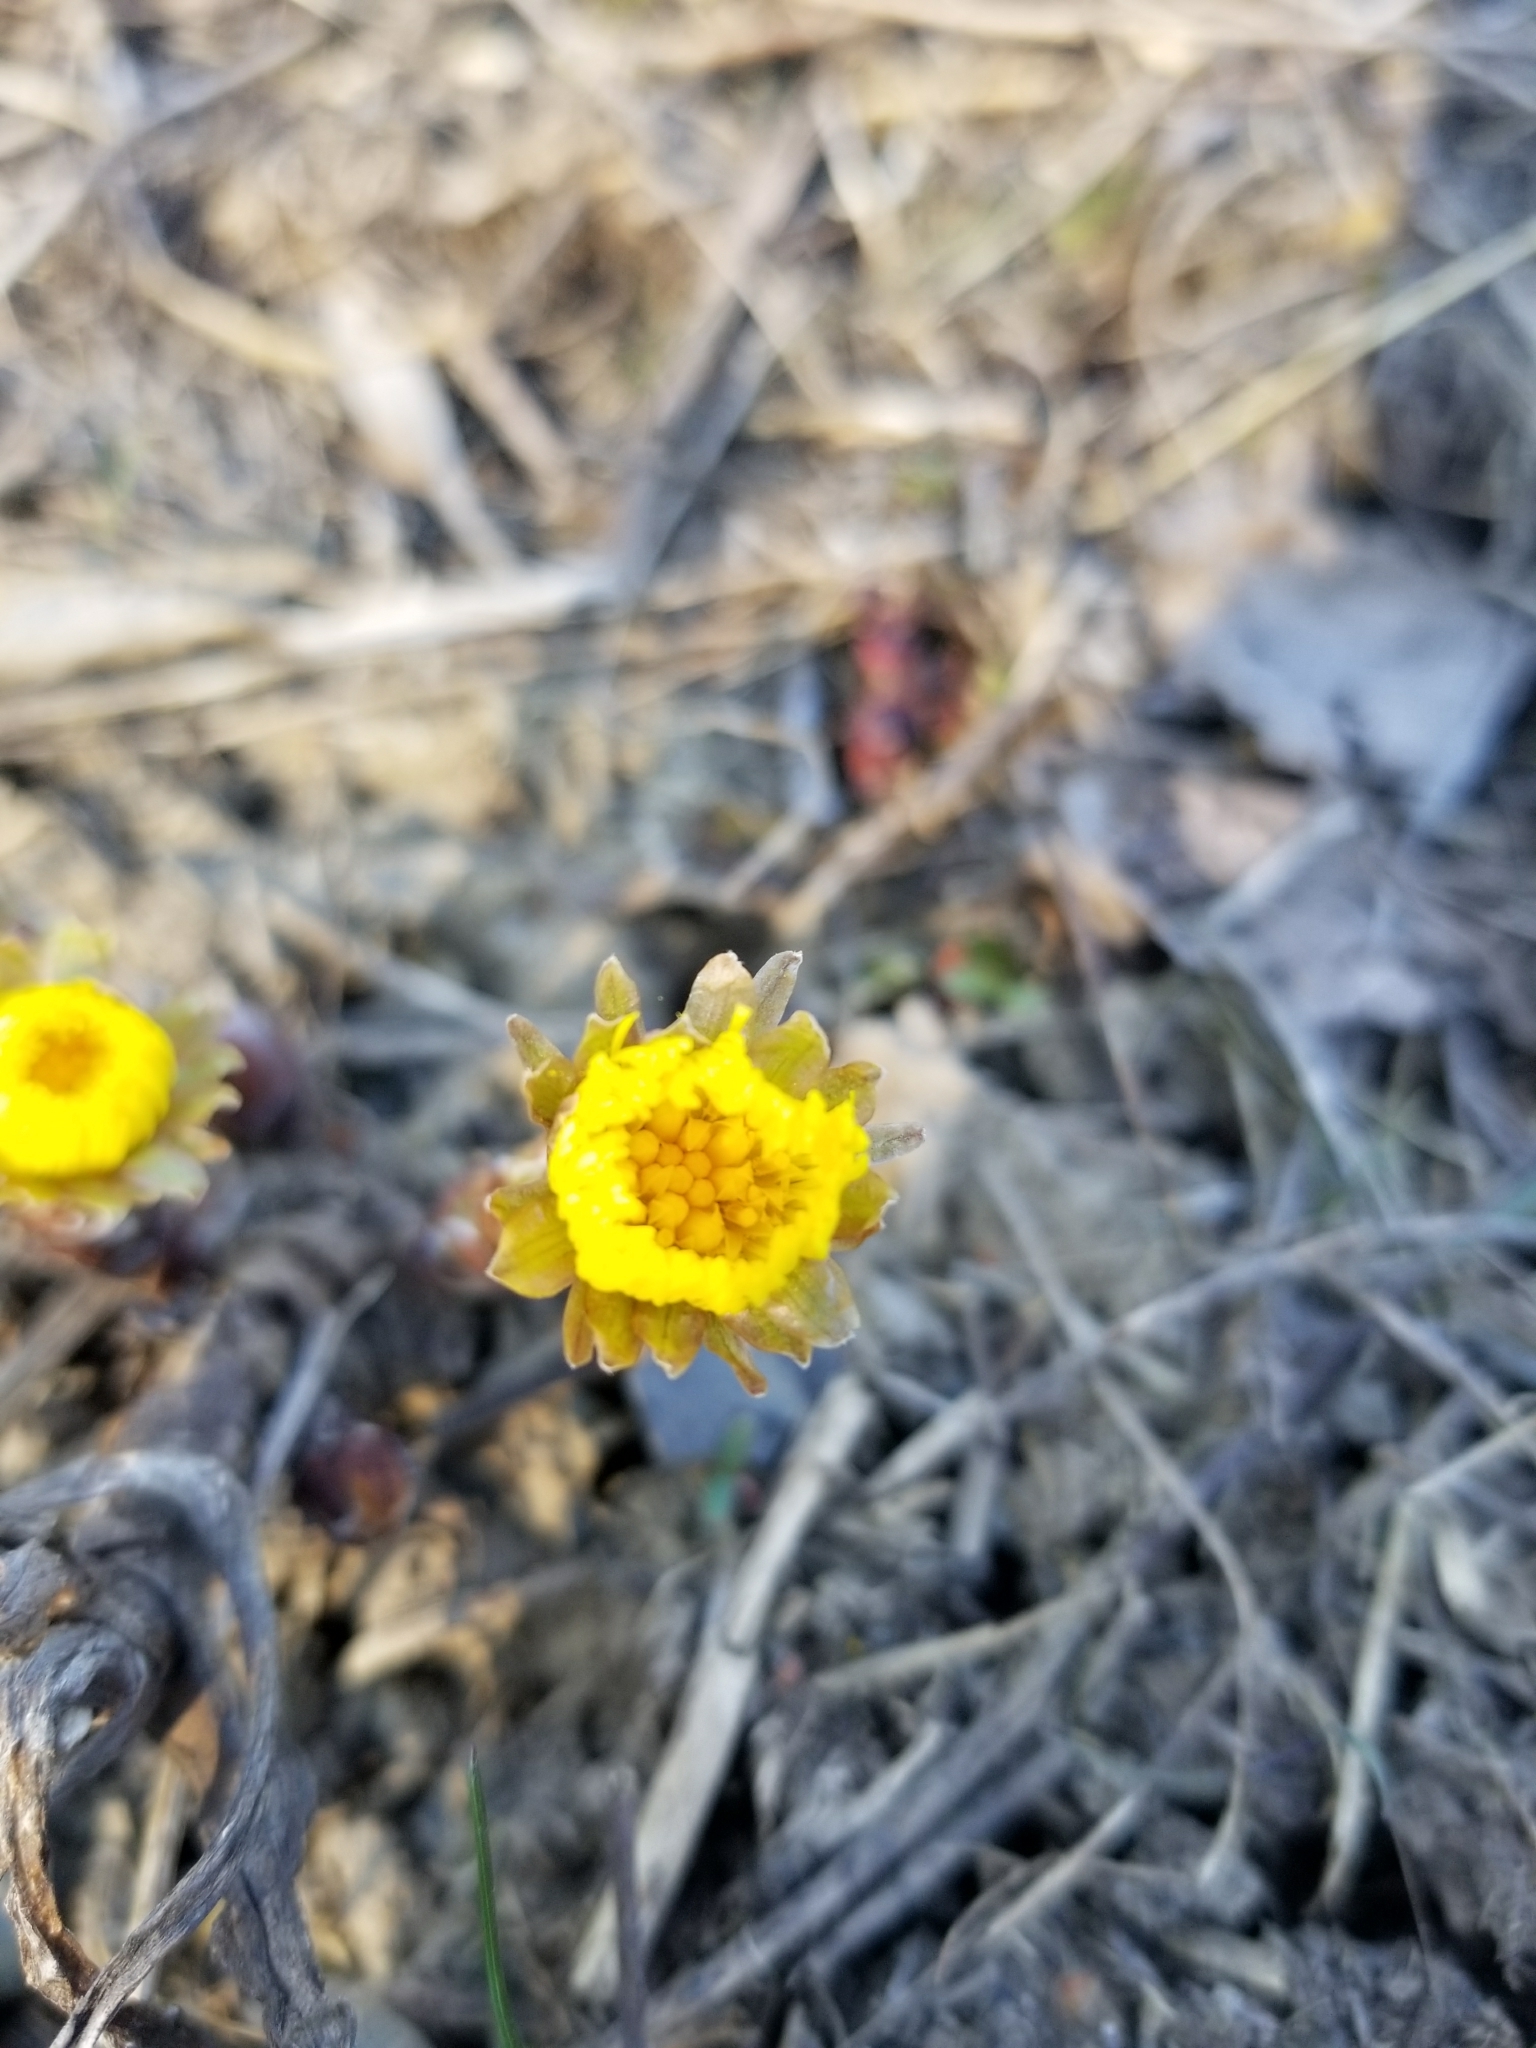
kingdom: Plantae
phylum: Tracheophyta
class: Magnoliopsida
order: Asterales
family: Asteraceae
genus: Tussilago
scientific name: Tussilago farfara
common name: Coltsfoot
